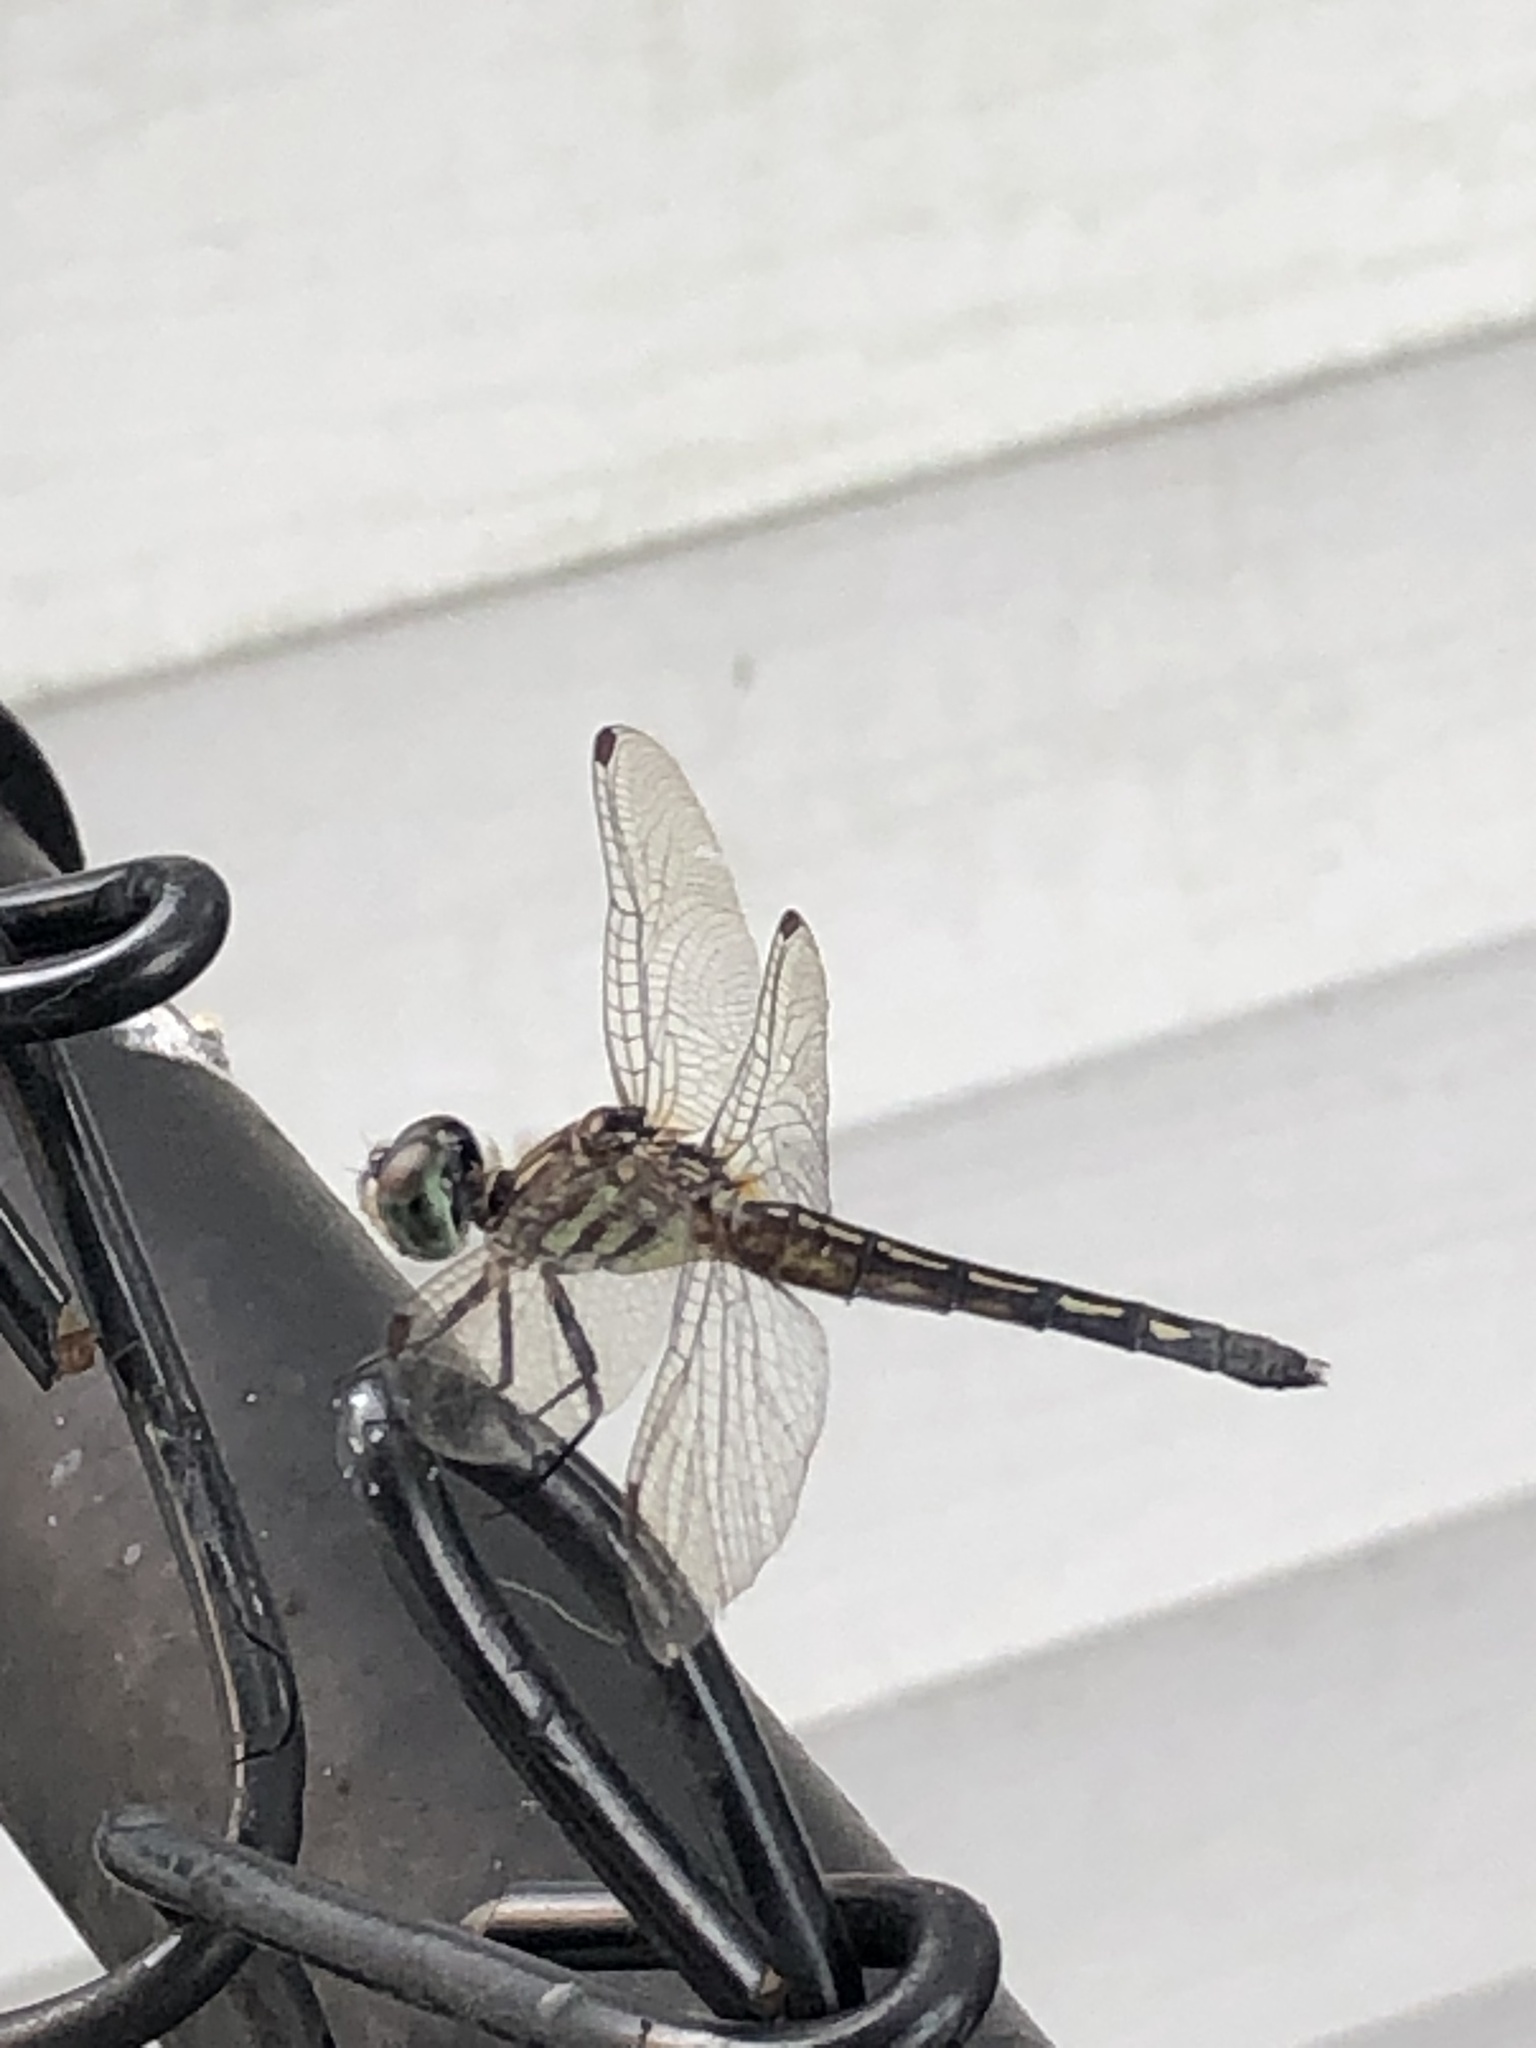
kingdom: Animalia
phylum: Arthropoda
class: Insecta
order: Odonata
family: Libellulidae
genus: Pachydiplax
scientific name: Pachydiplax longipennis
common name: Blue dasher
